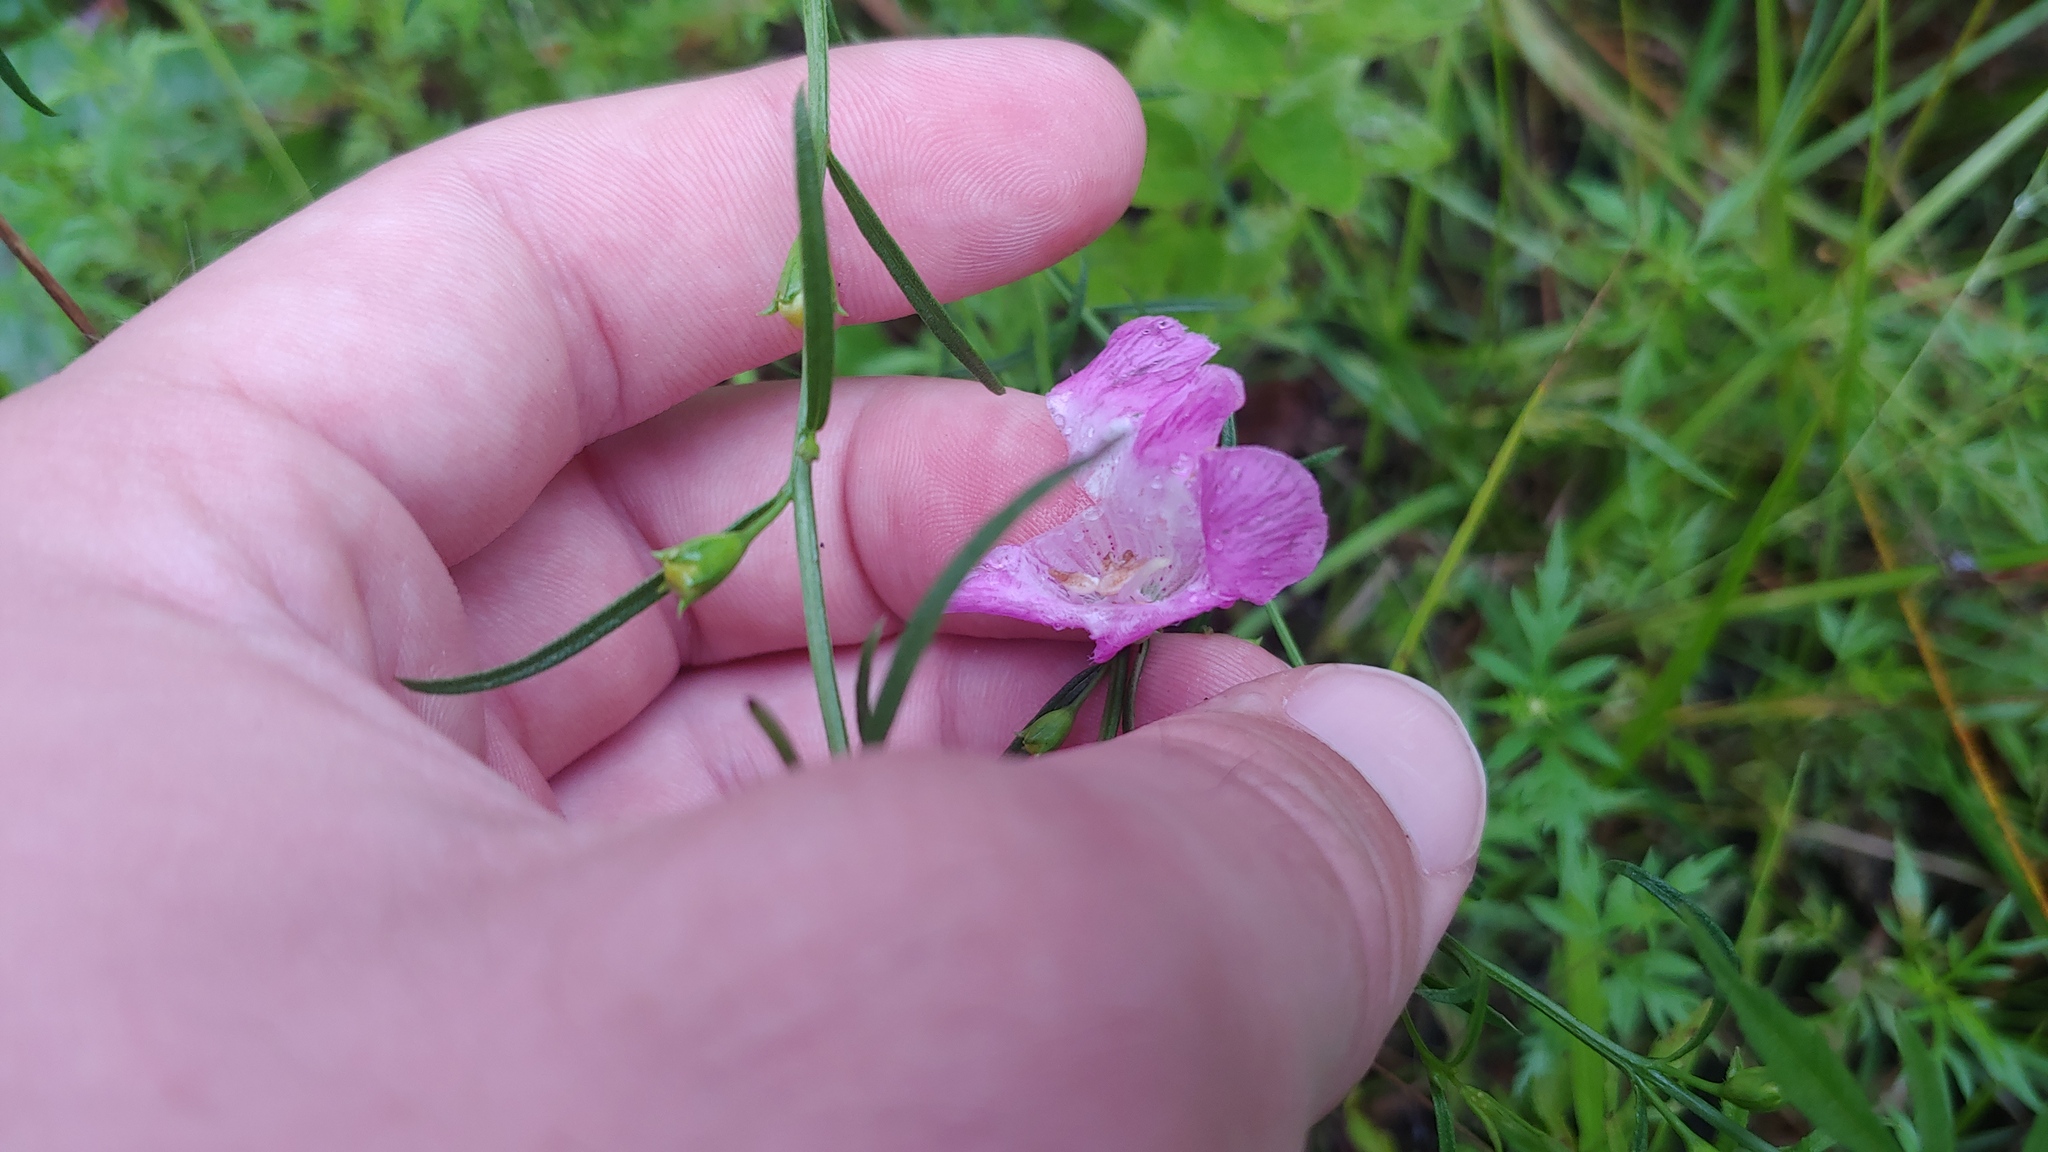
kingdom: Plantae
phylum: Tracheophyta
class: Magnoliopsida
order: Lamiales
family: Orobanchaceae
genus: Agalinis
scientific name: Agalinis purpurea
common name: Purple false foxglove
